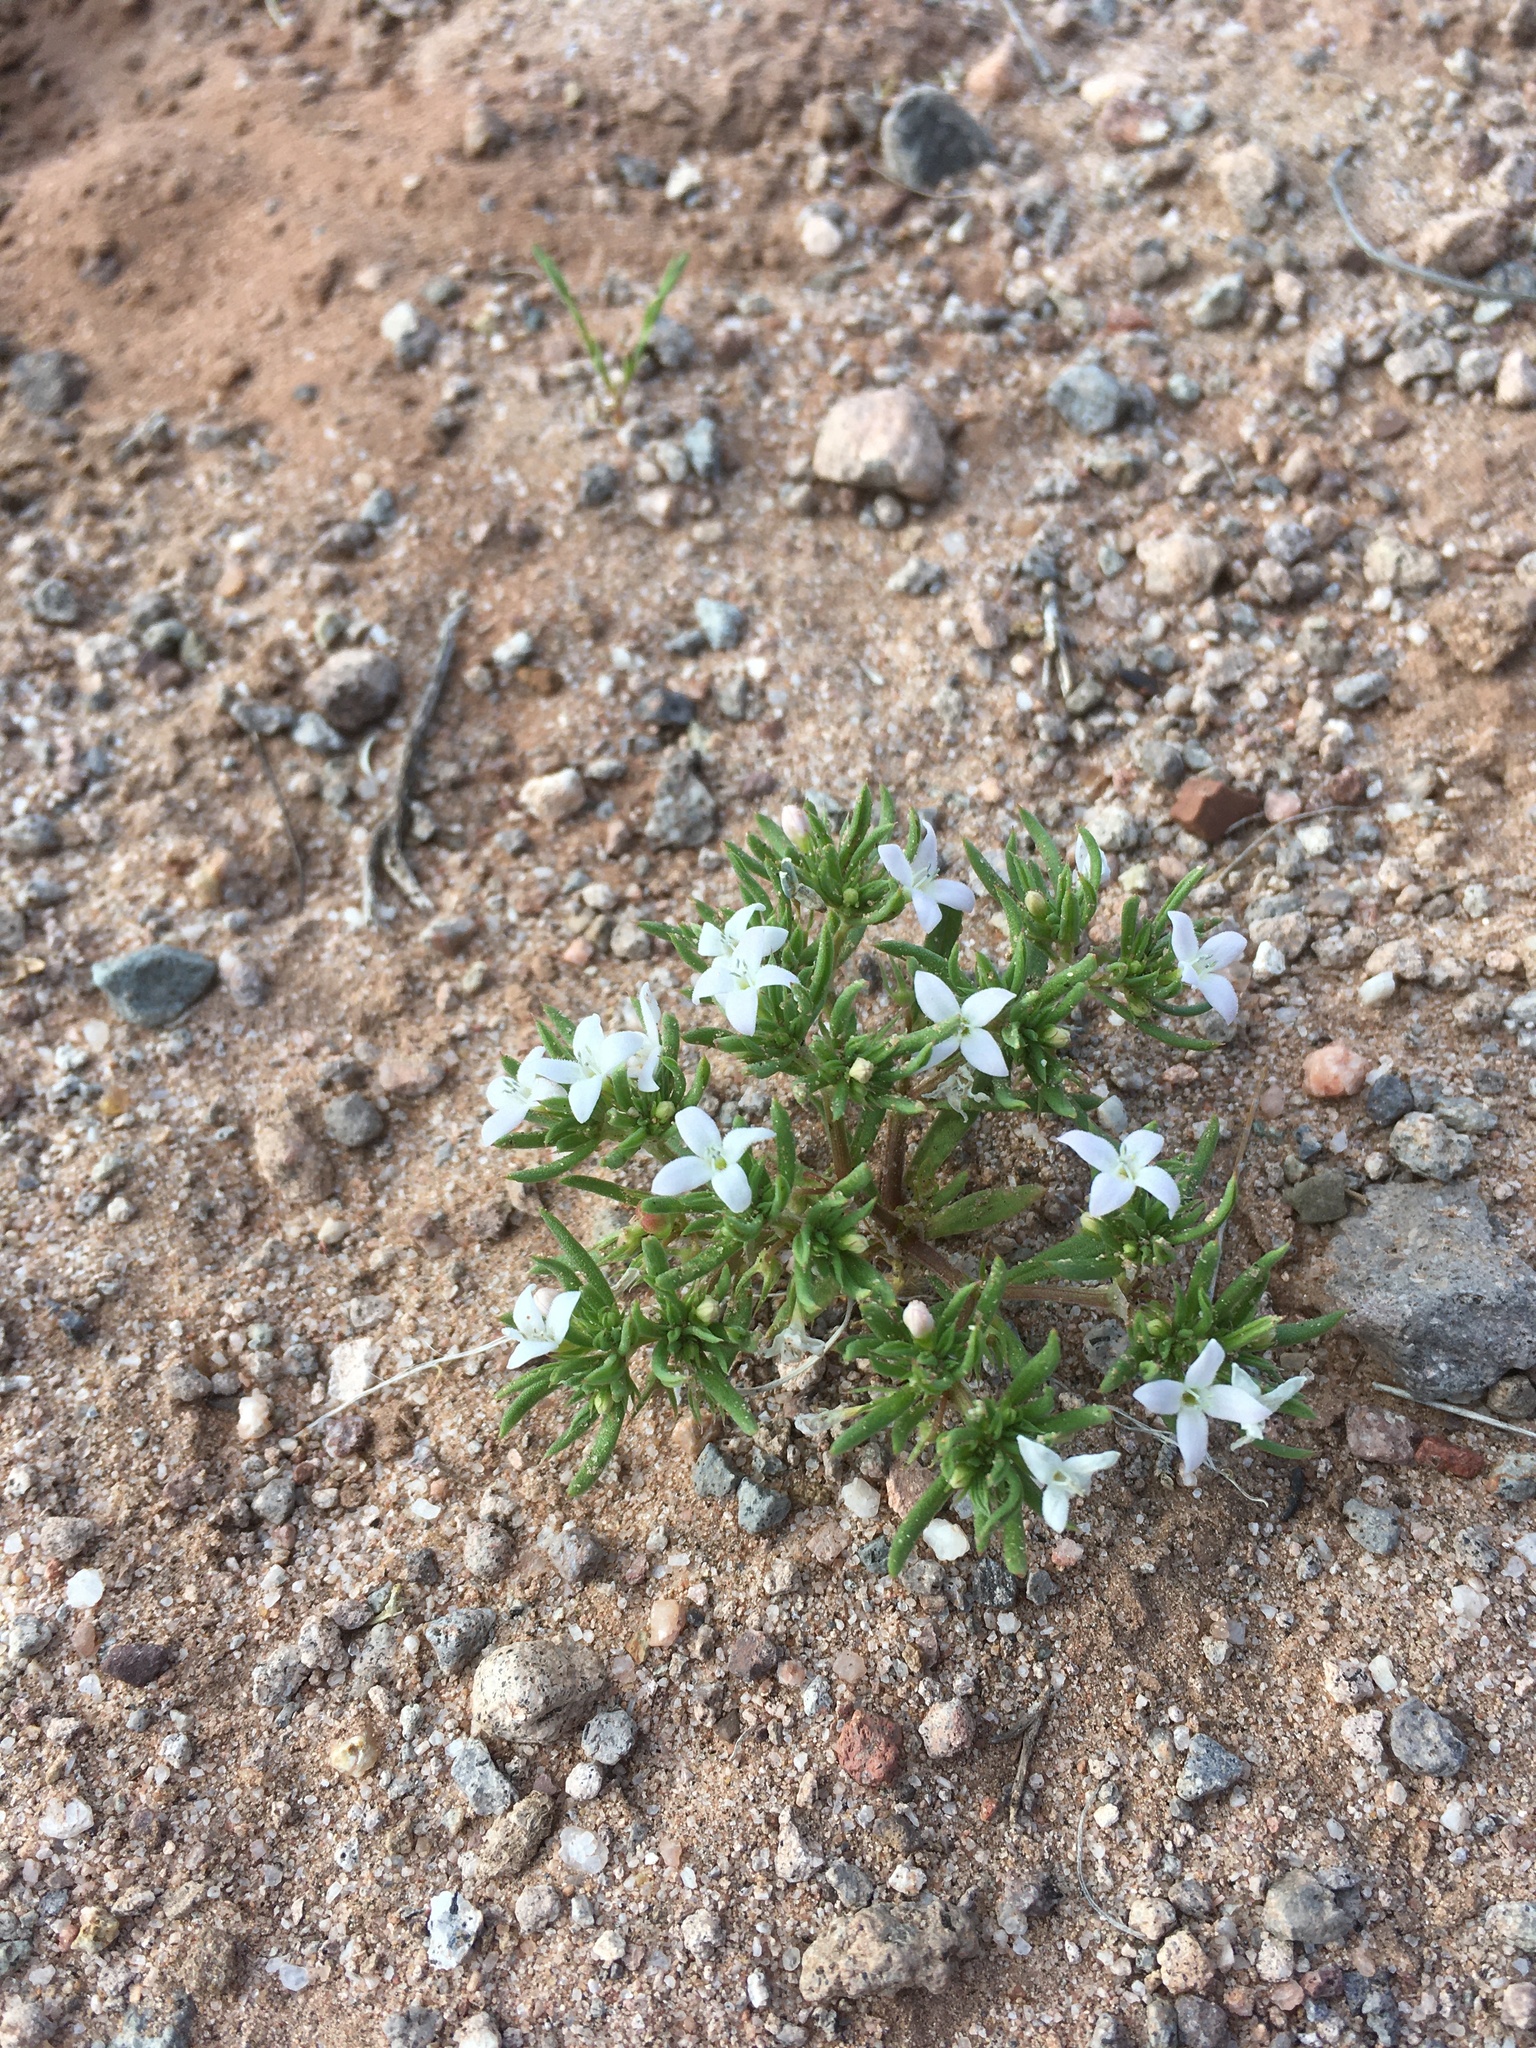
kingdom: Plantae
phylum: Tracheophyta
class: Magnoliopsida
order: Gentianales
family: Rubiaceae
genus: Houstonia
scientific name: Houstonia humifusa
